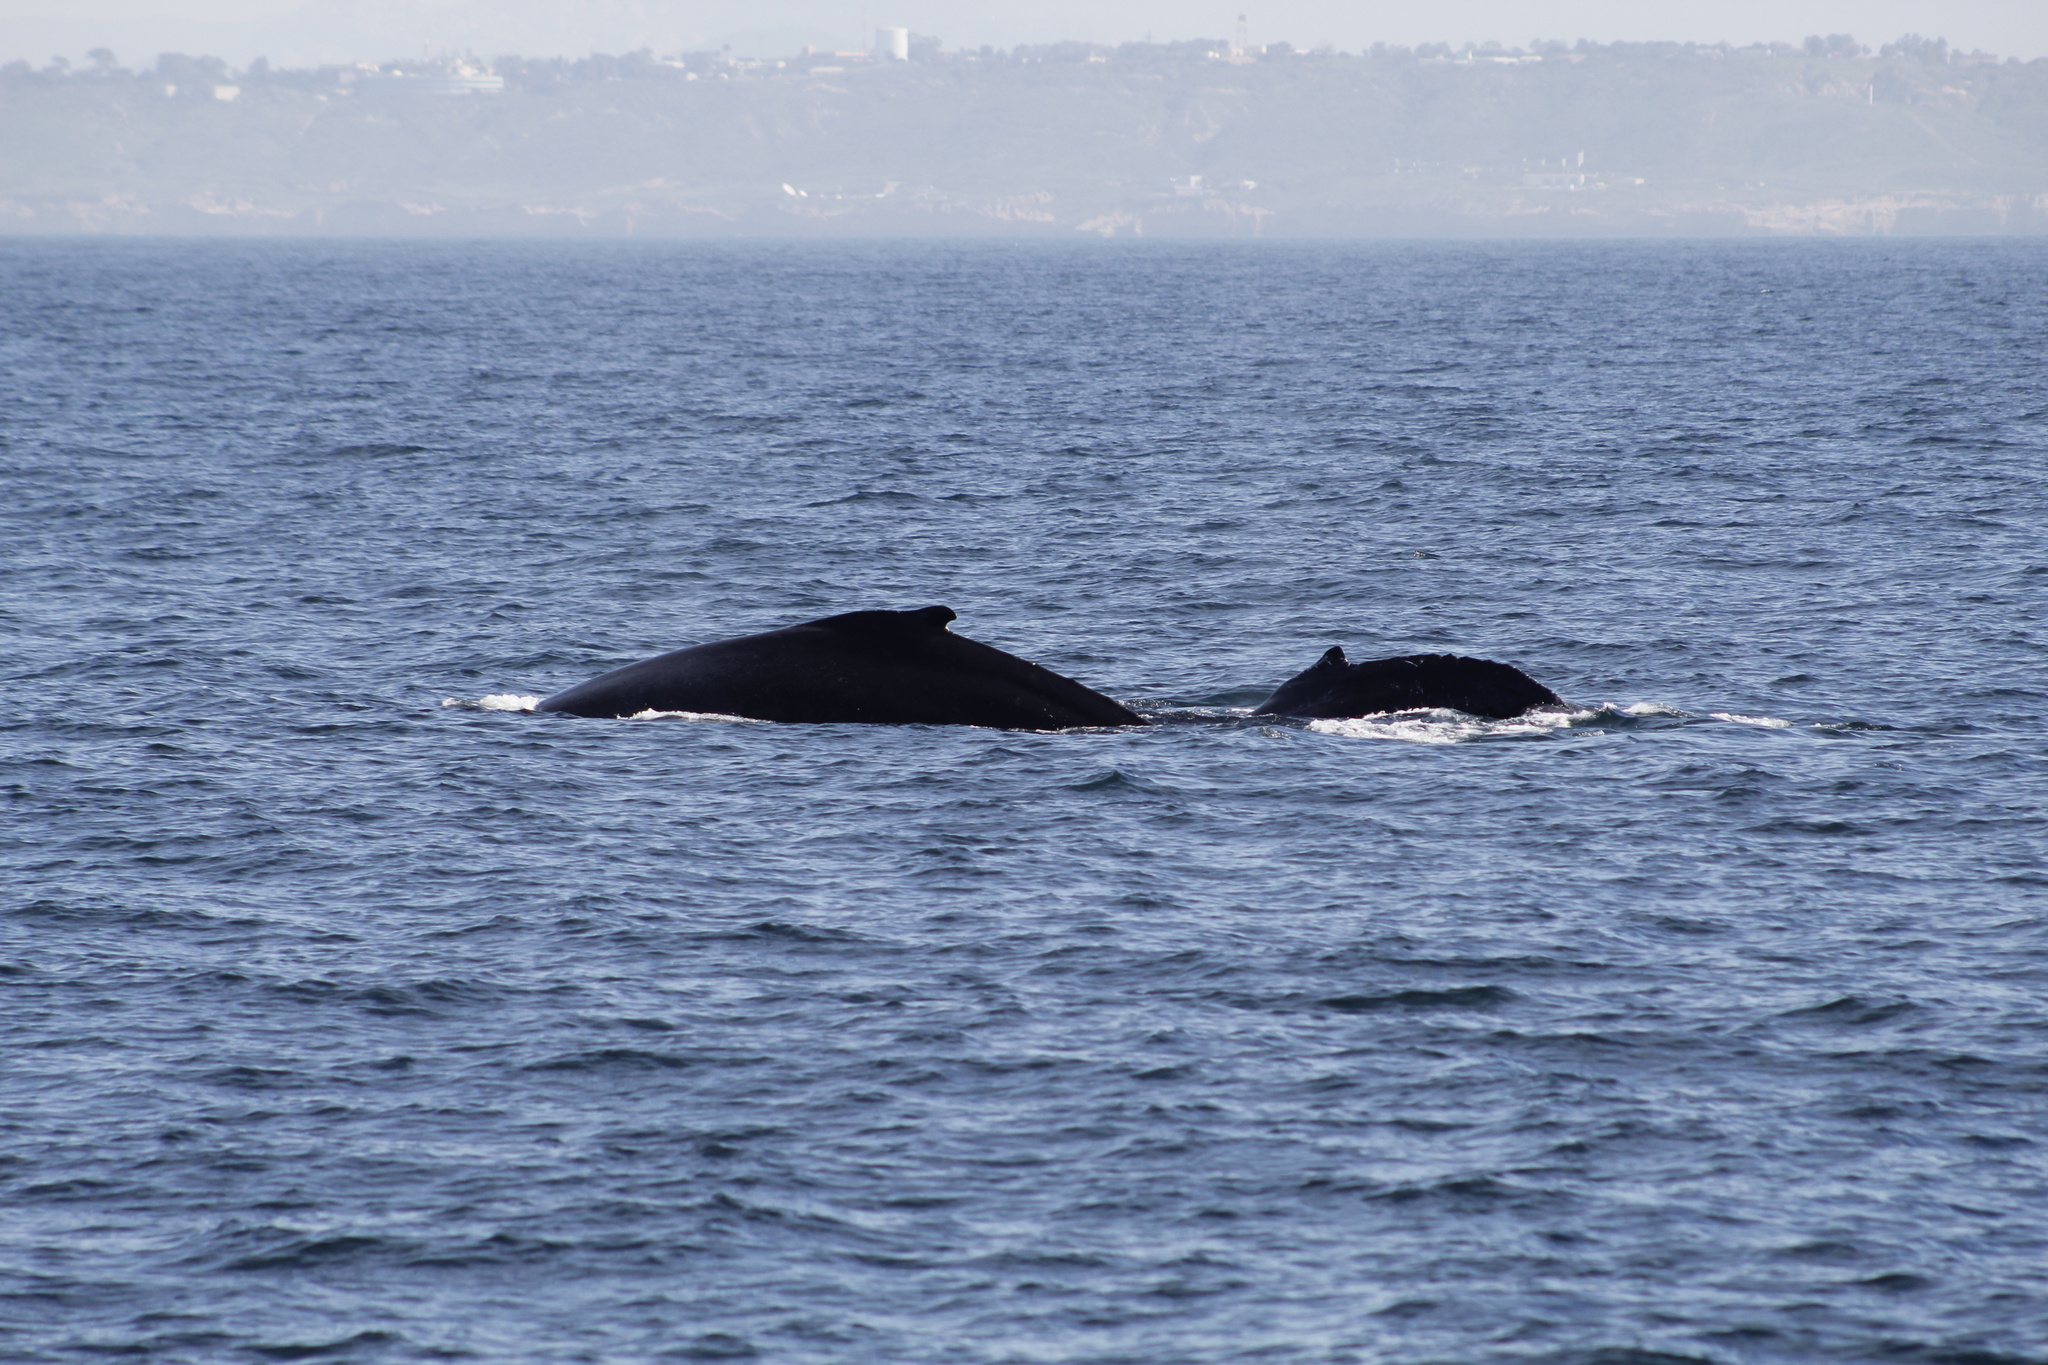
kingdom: Animalia
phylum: Chordata
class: Mammalia
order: Cetacea
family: Balaenopteridae
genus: Megaptera
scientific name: Megaptera novaeangliae
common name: Humpback whale
